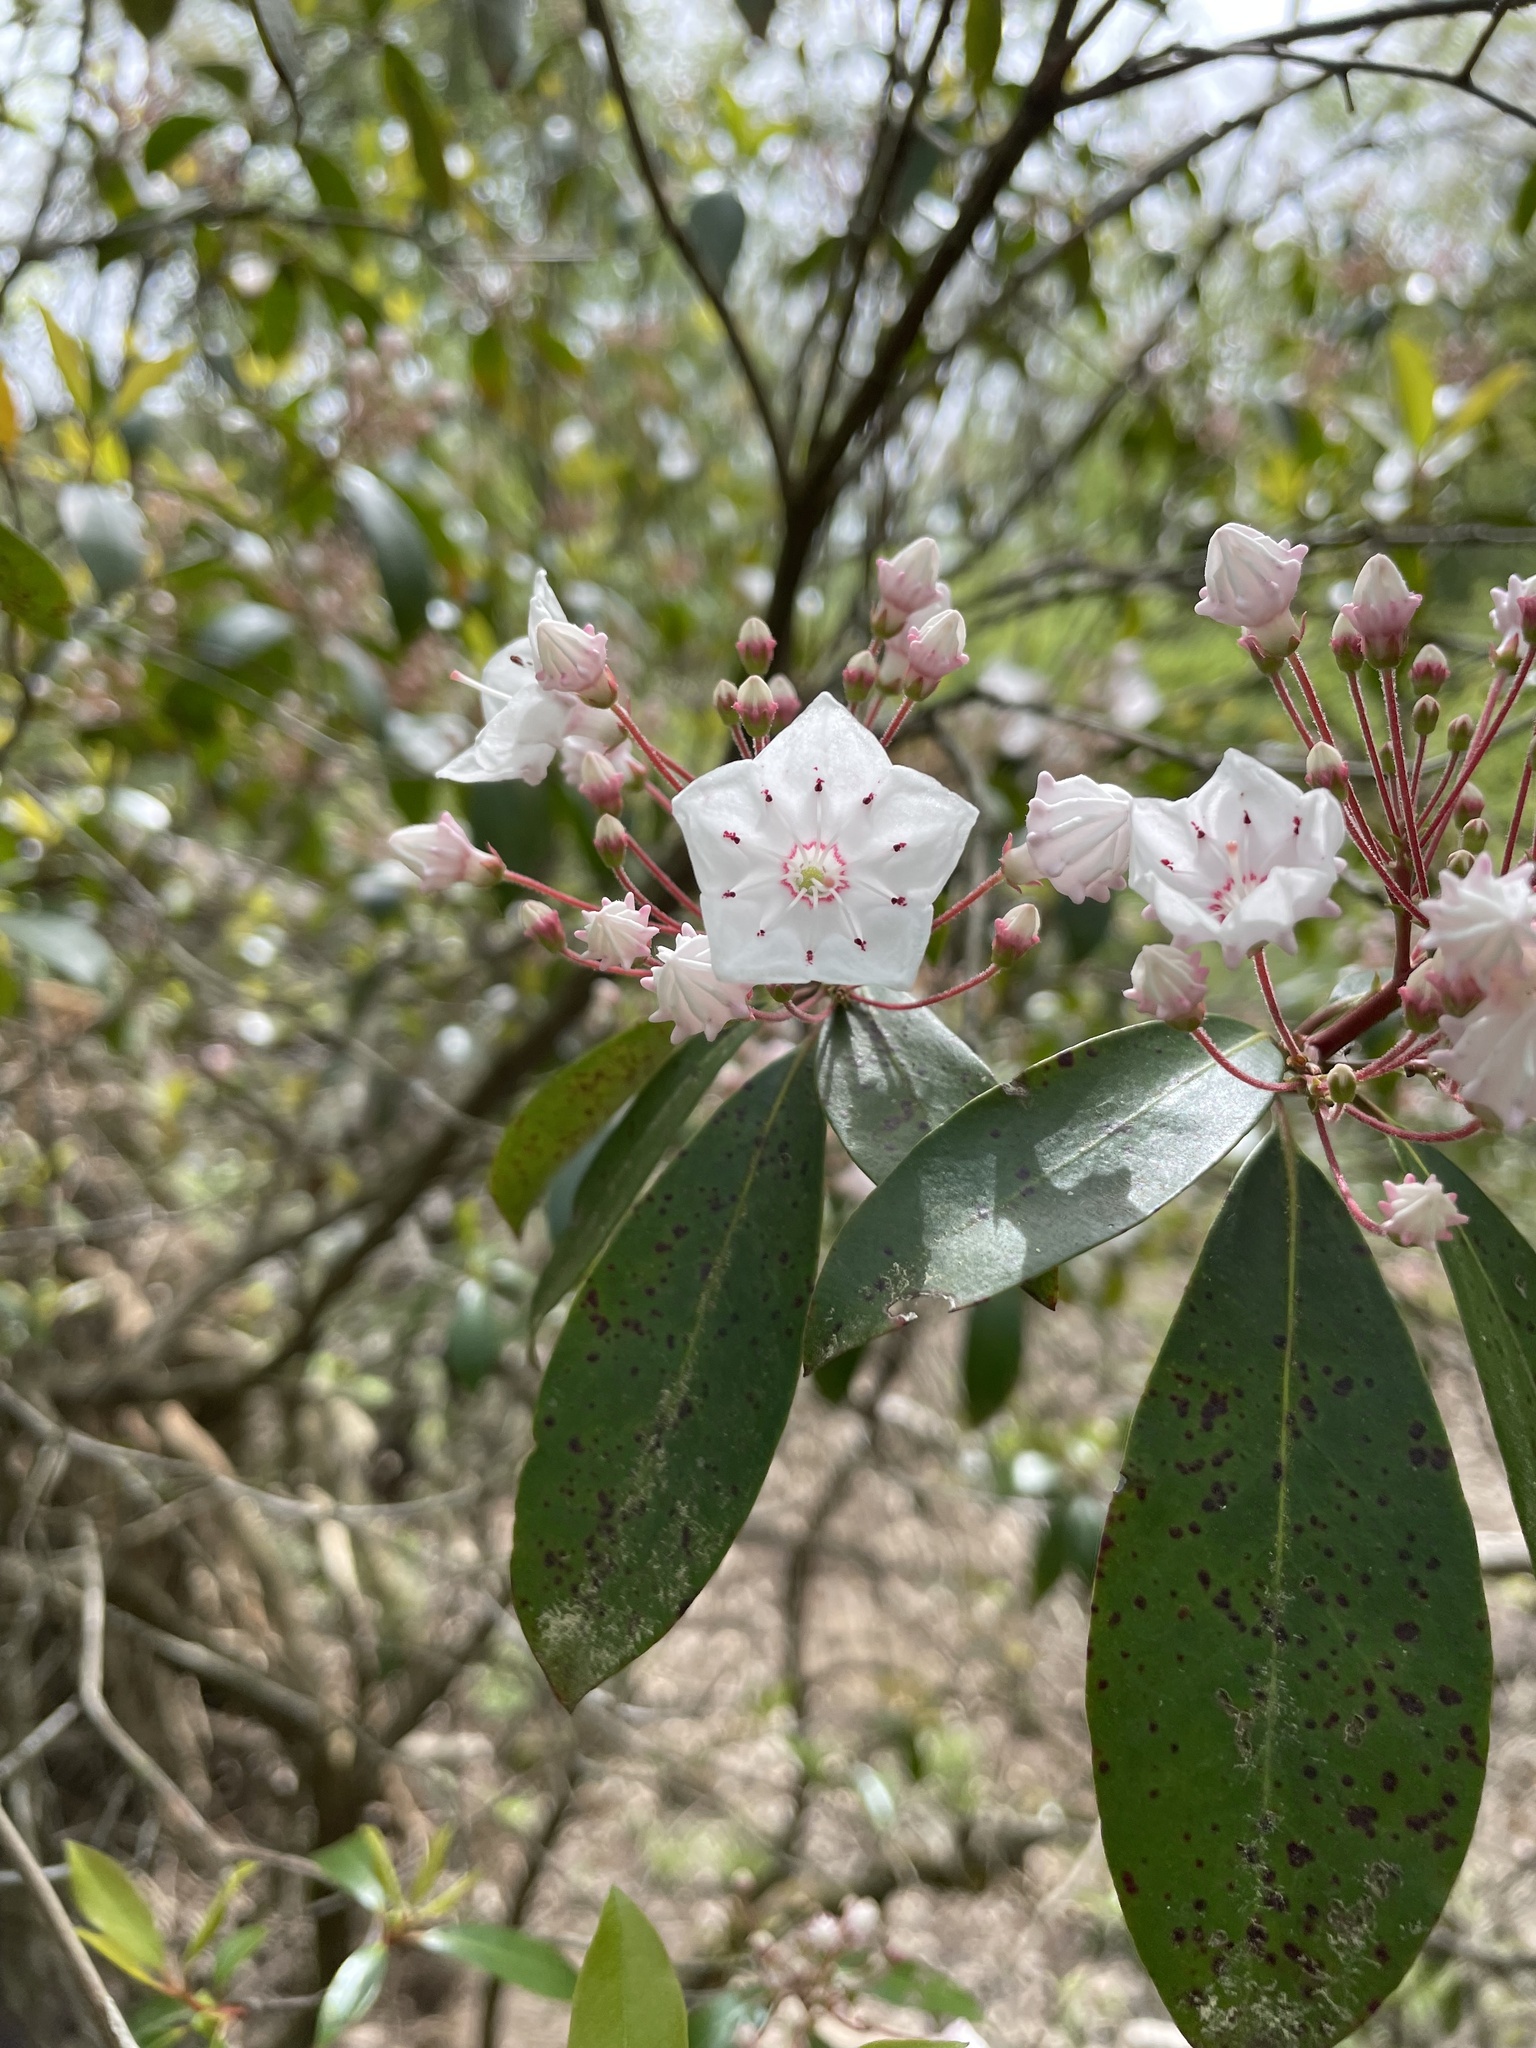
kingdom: Plantae
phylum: Tracheophyta
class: Magnoliopsida
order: Ericales
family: Ericaceae
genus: Kalmia
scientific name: Kalmia latifolia
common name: Mountain-laurel
